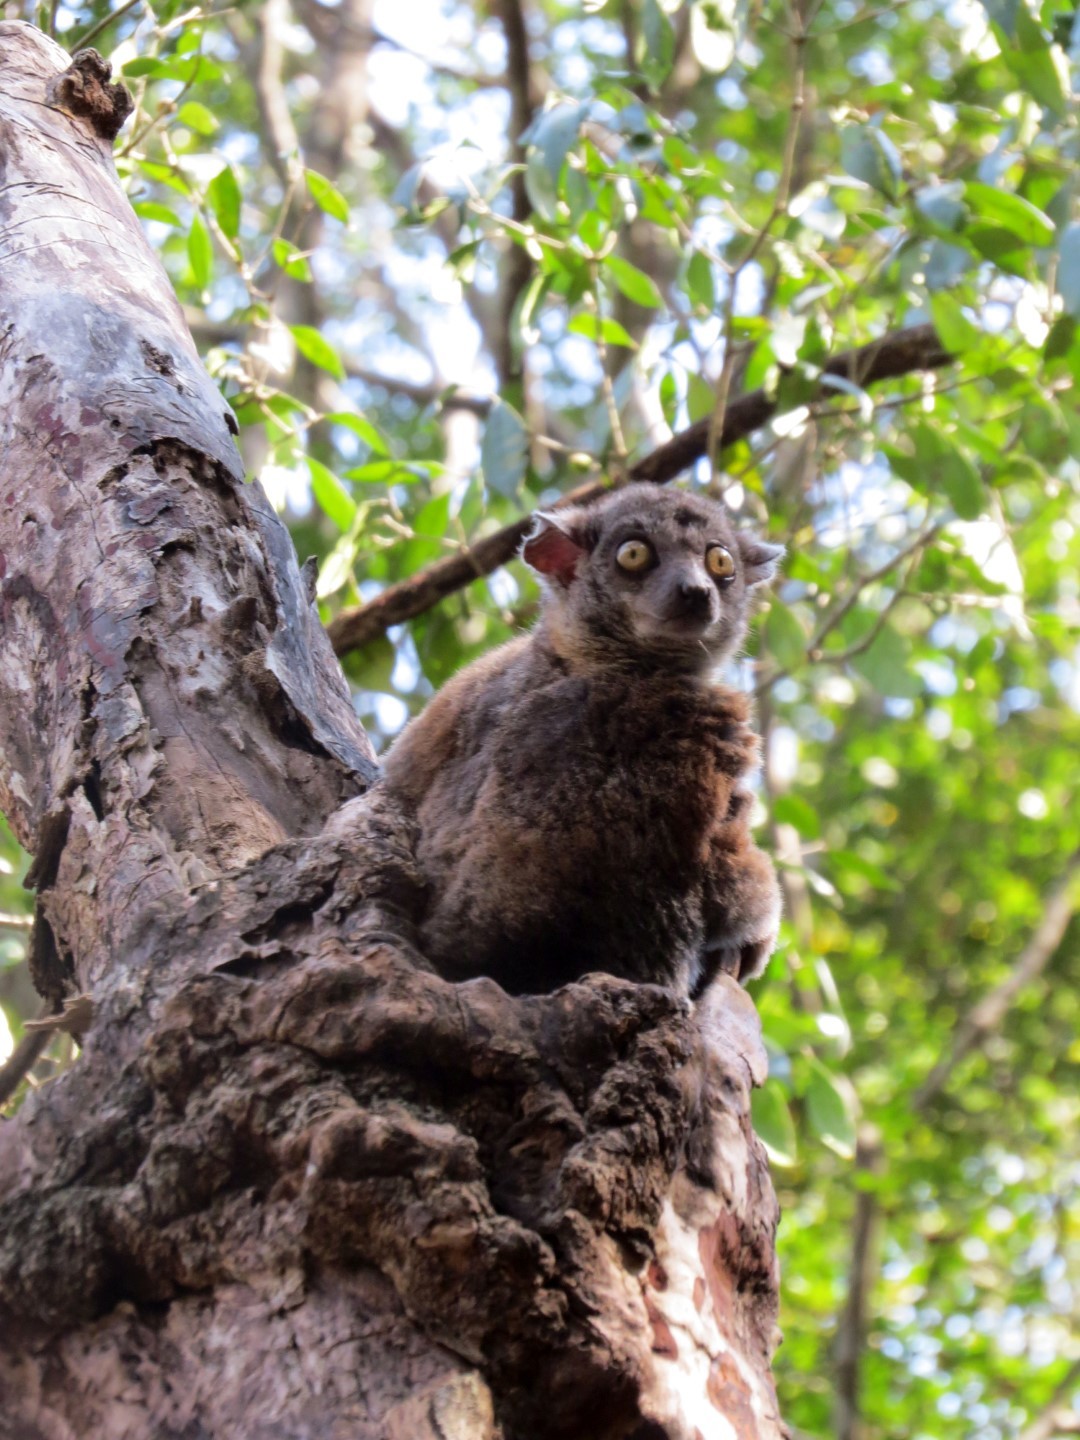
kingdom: Animalia
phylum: Chordata
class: Mammalia
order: Primates
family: Lepilemuridae
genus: Lepilemur
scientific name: Lepilemur randrianasoloi
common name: Bemaraha sportive lemur
